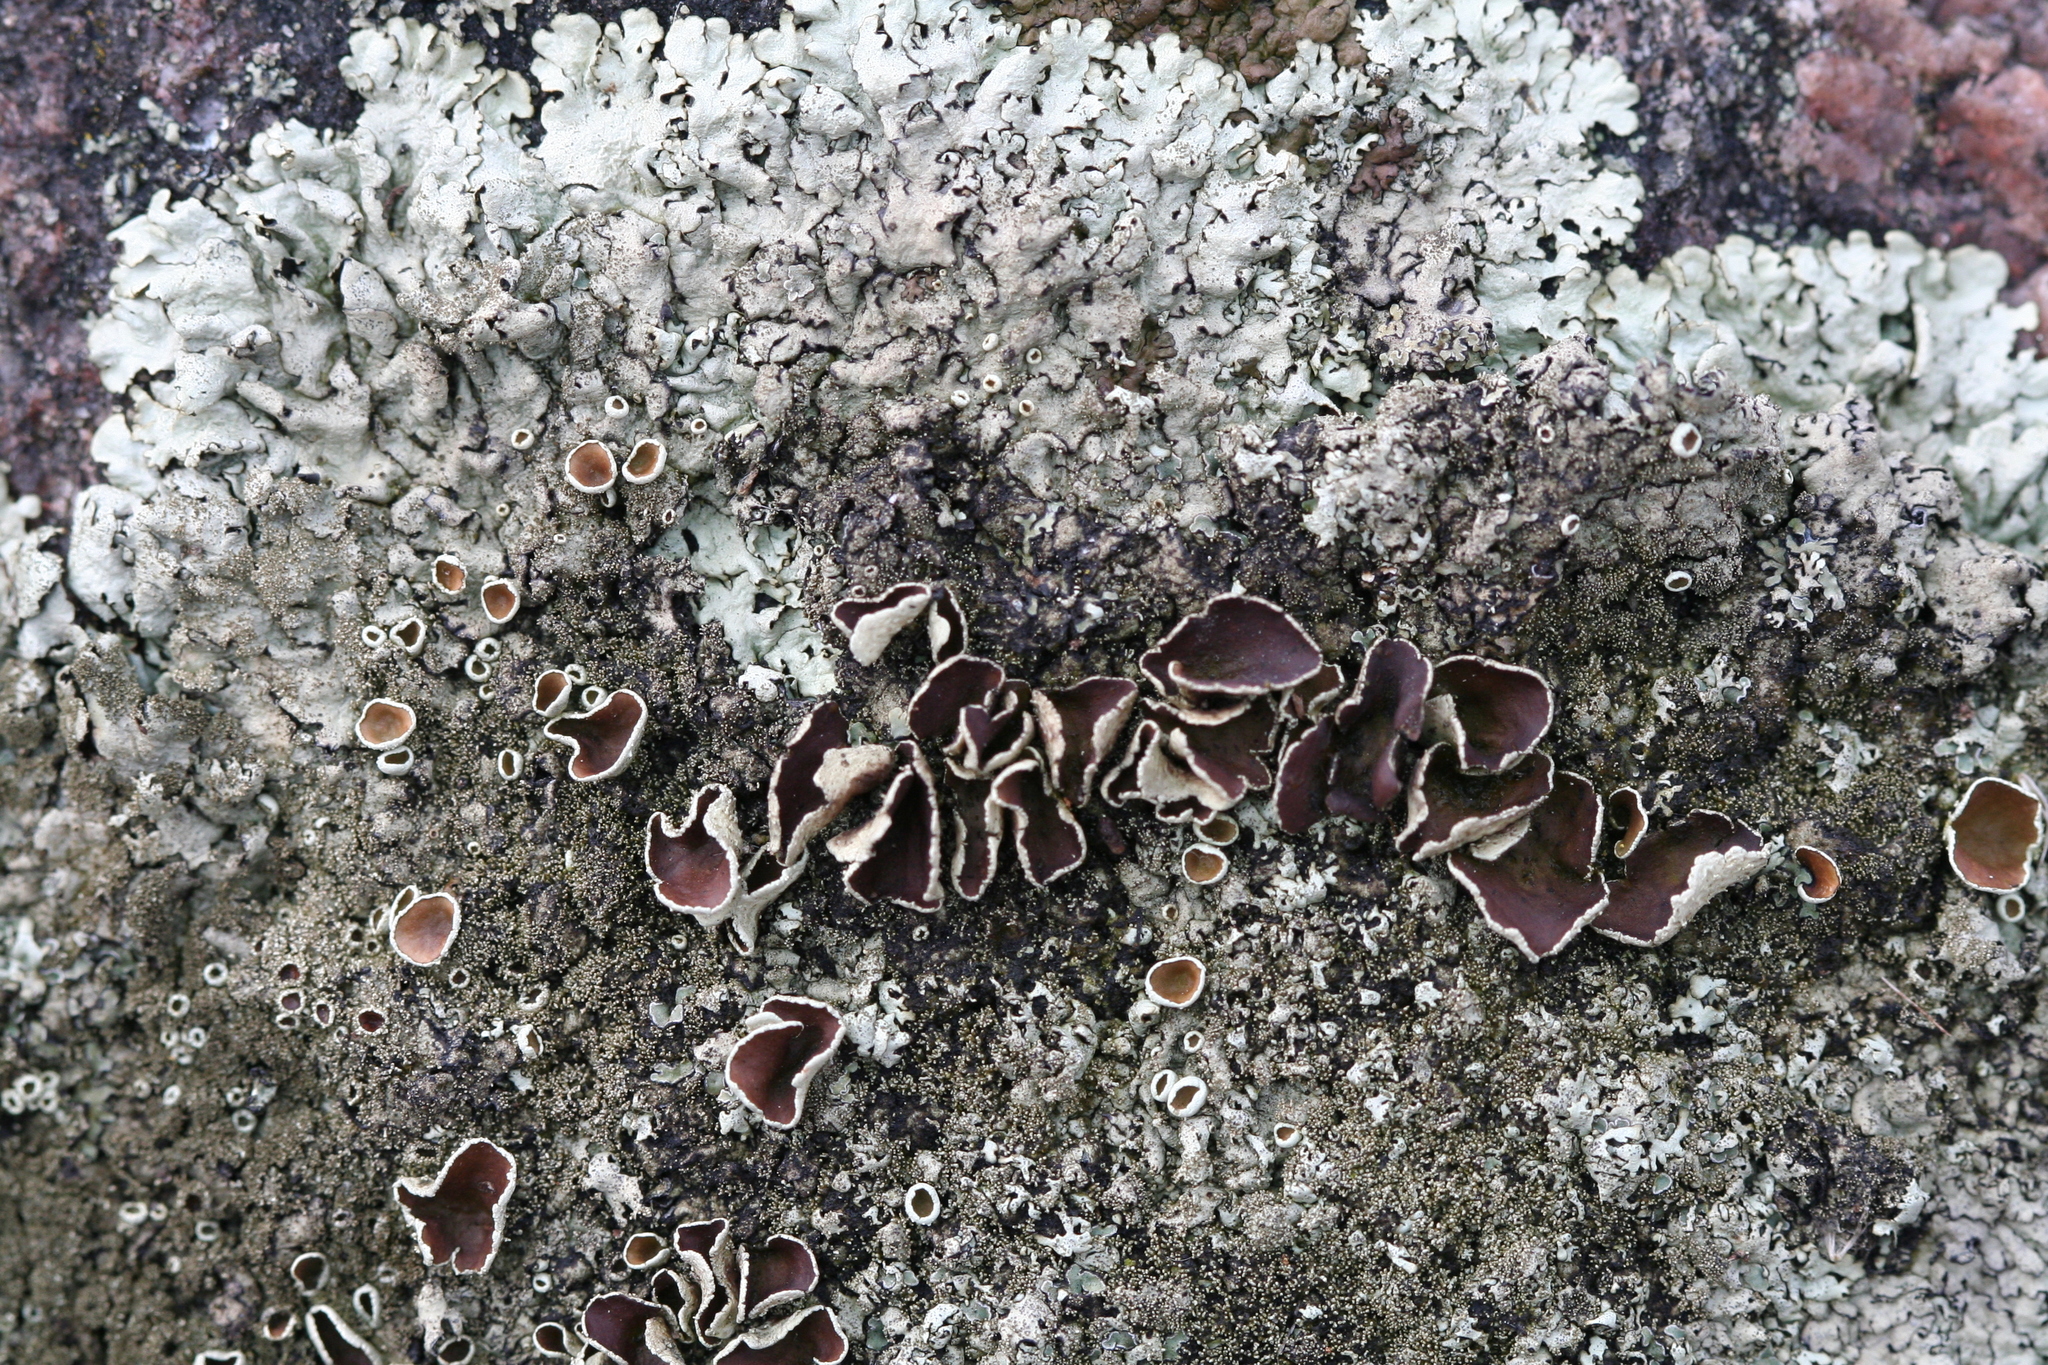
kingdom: Fungi
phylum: Ascomycota
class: Lecanoromycetes
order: Lecanorales
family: Parmeliaceae
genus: Xanthoparmelia
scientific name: Xanthoparmelia conspersa
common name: Peppered rock shield
